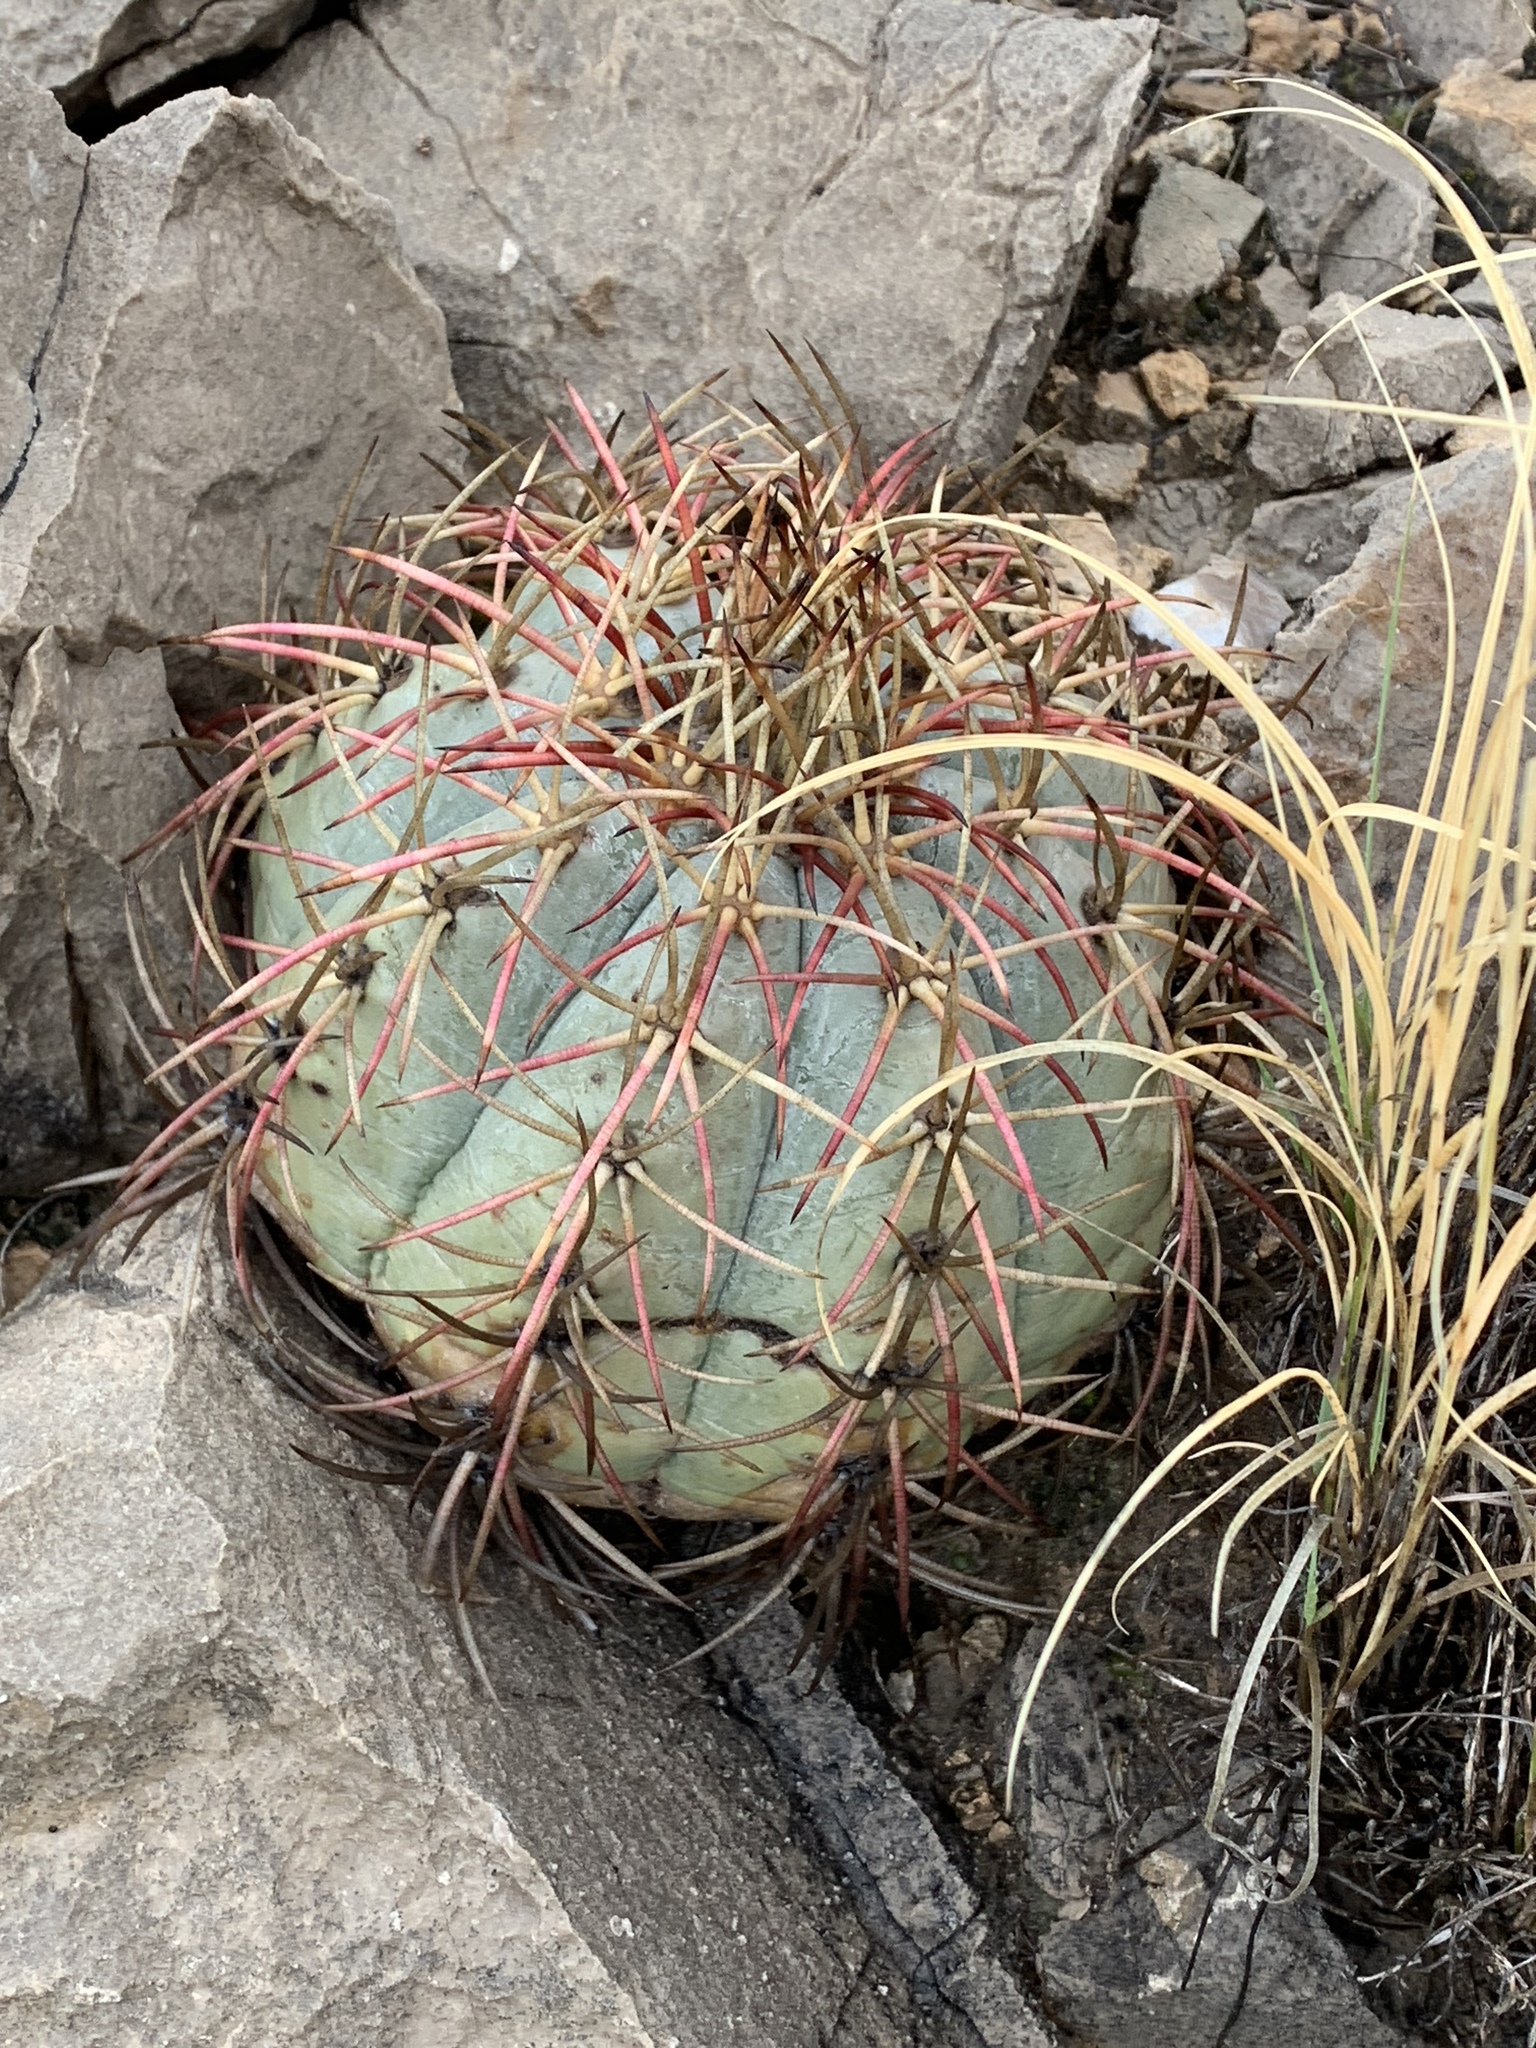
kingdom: Plantae
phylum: Tracheophyta
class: Magnoliopsida
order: Caryophyllales
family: Cactaceae
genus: Echinocactus
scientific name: Echinocactus horizonthalonius
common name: Devilshead
